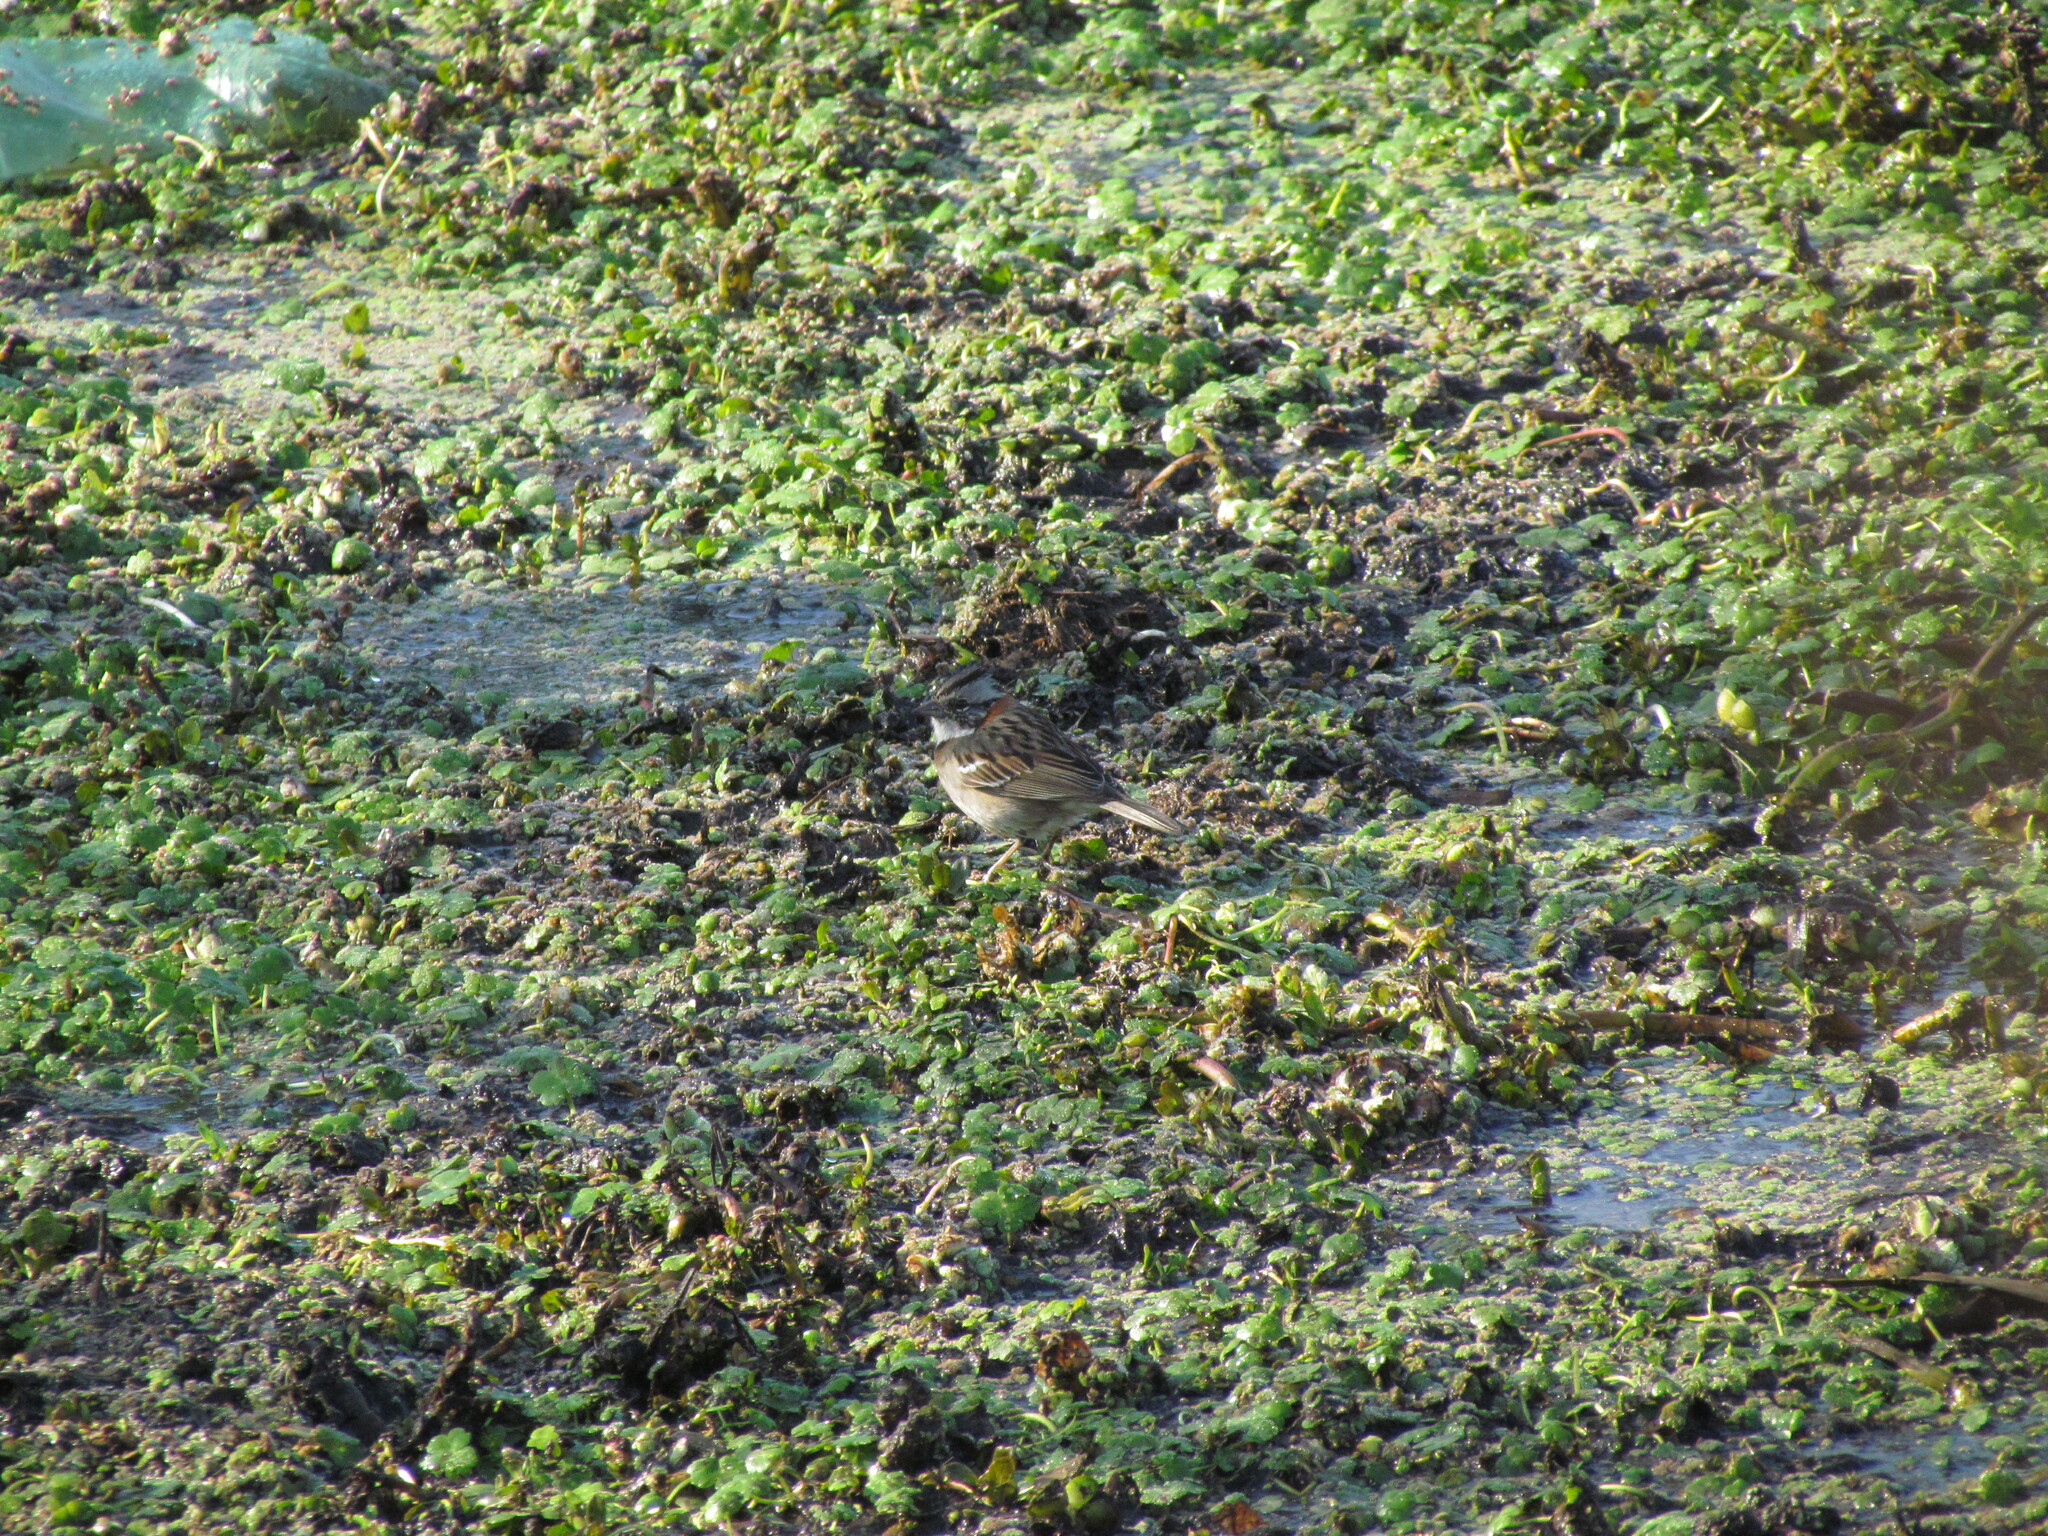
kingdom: Animalia
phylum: Chordata
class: Aves
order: Passeriformes
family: Passerellidae
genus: Zonotrichia
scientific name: Zonotrichia capensis
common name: Rufous-collared sparrow
